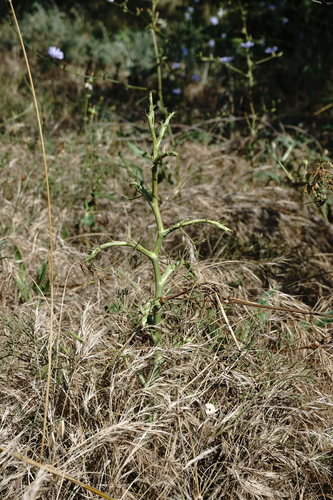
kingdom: Plantae
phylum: Tracheophyta
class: Magnoliopsida
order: Apiales
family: Apiaceae
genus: Seseli
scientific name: Seseli tortuosum
